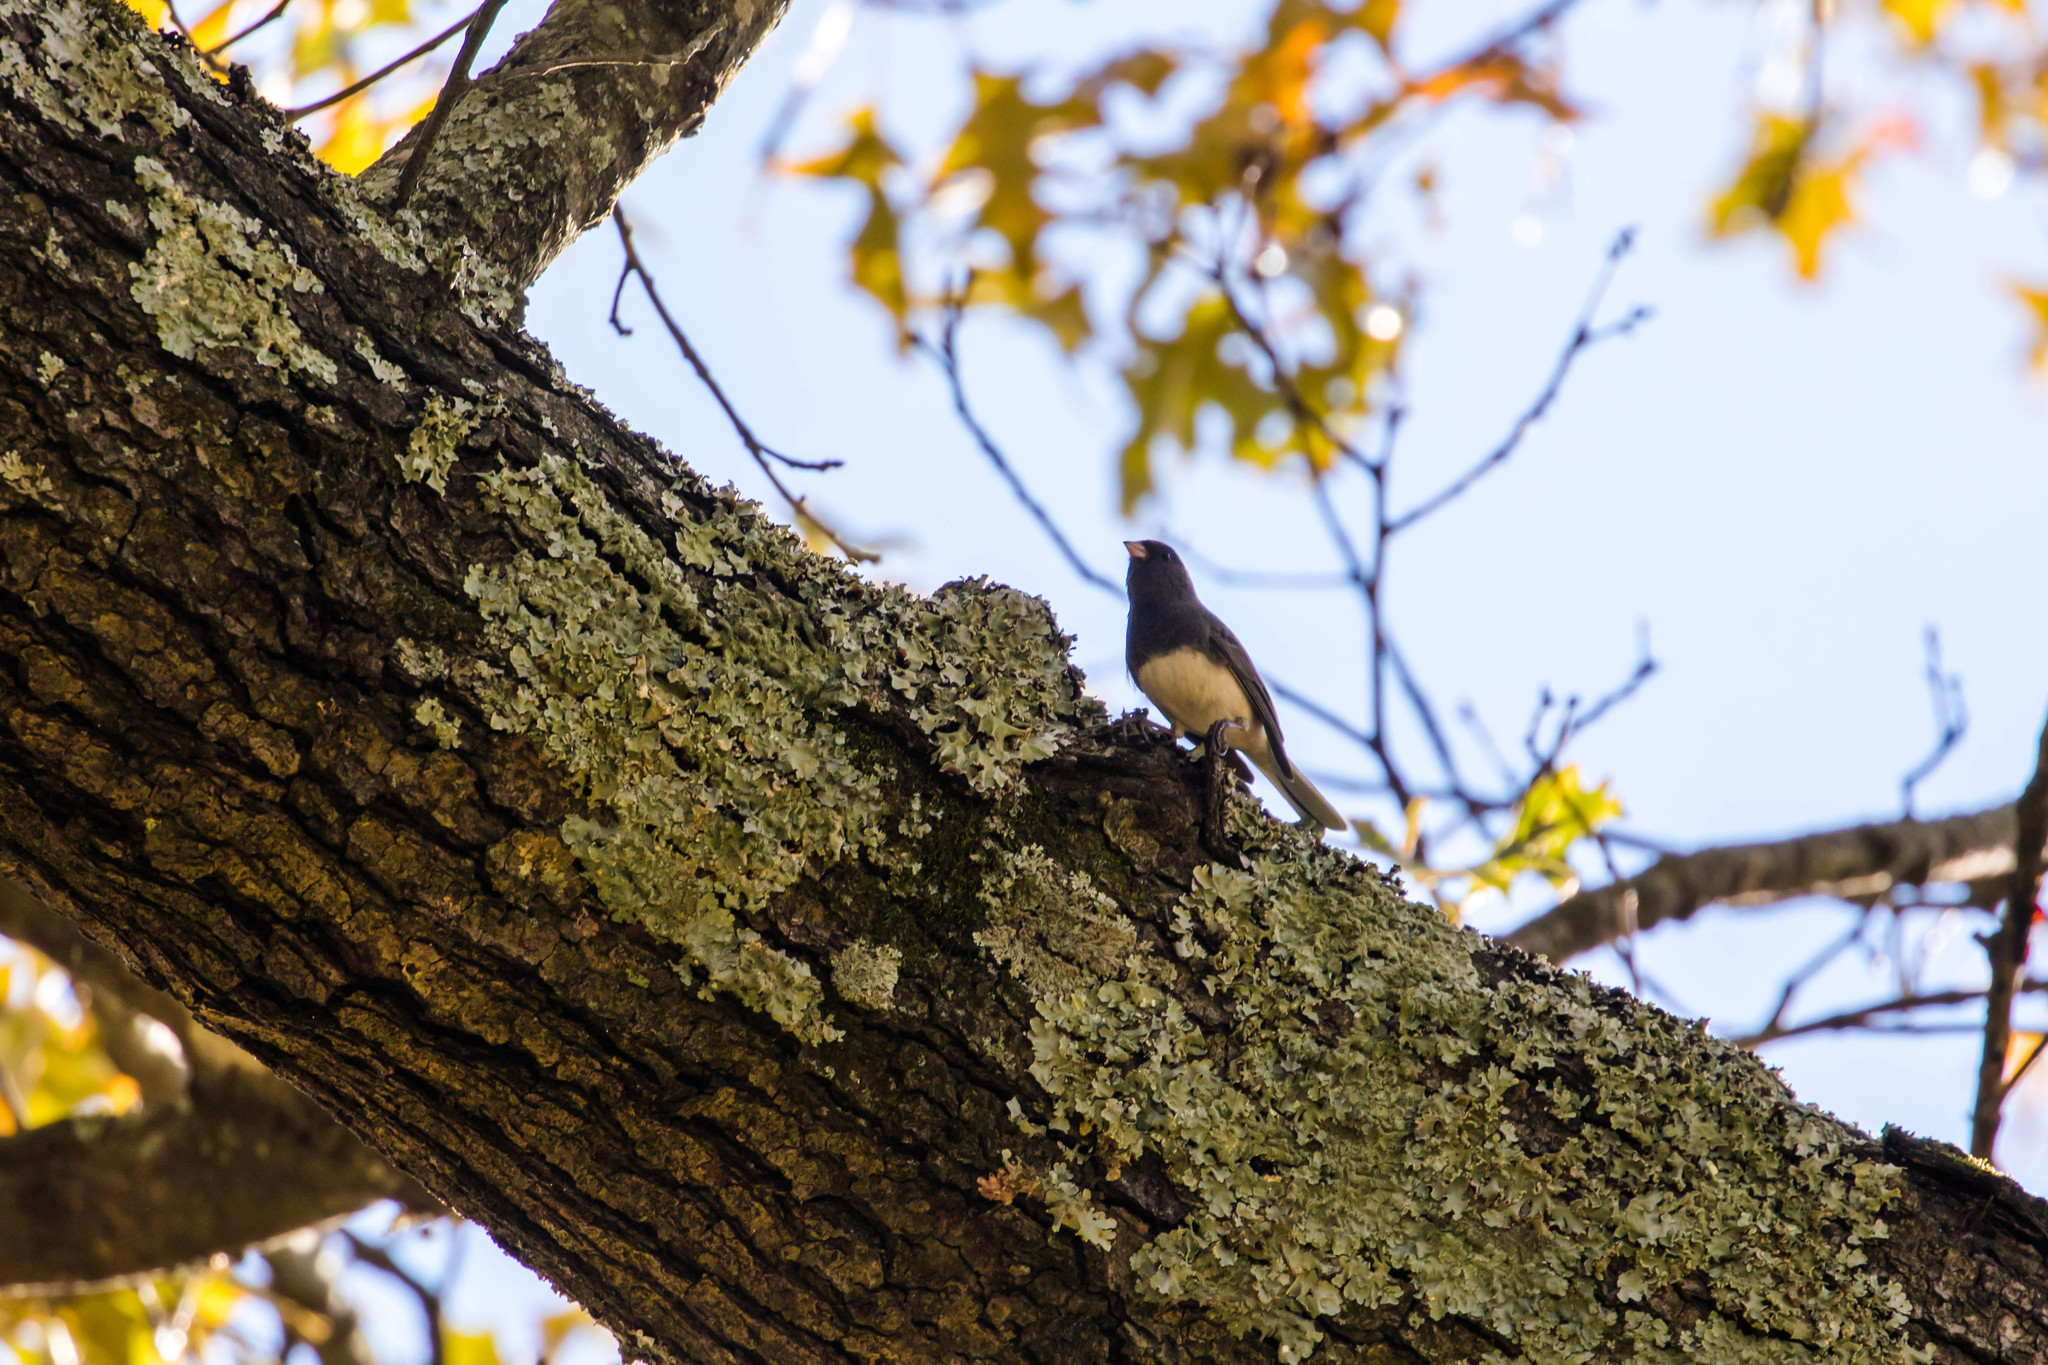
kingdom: Animalia
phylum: Chordata
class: Aves
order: Passeriformes
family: Passerellidae
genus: Junco
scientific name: Junco hyemalis
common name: Dark-eyed junco
